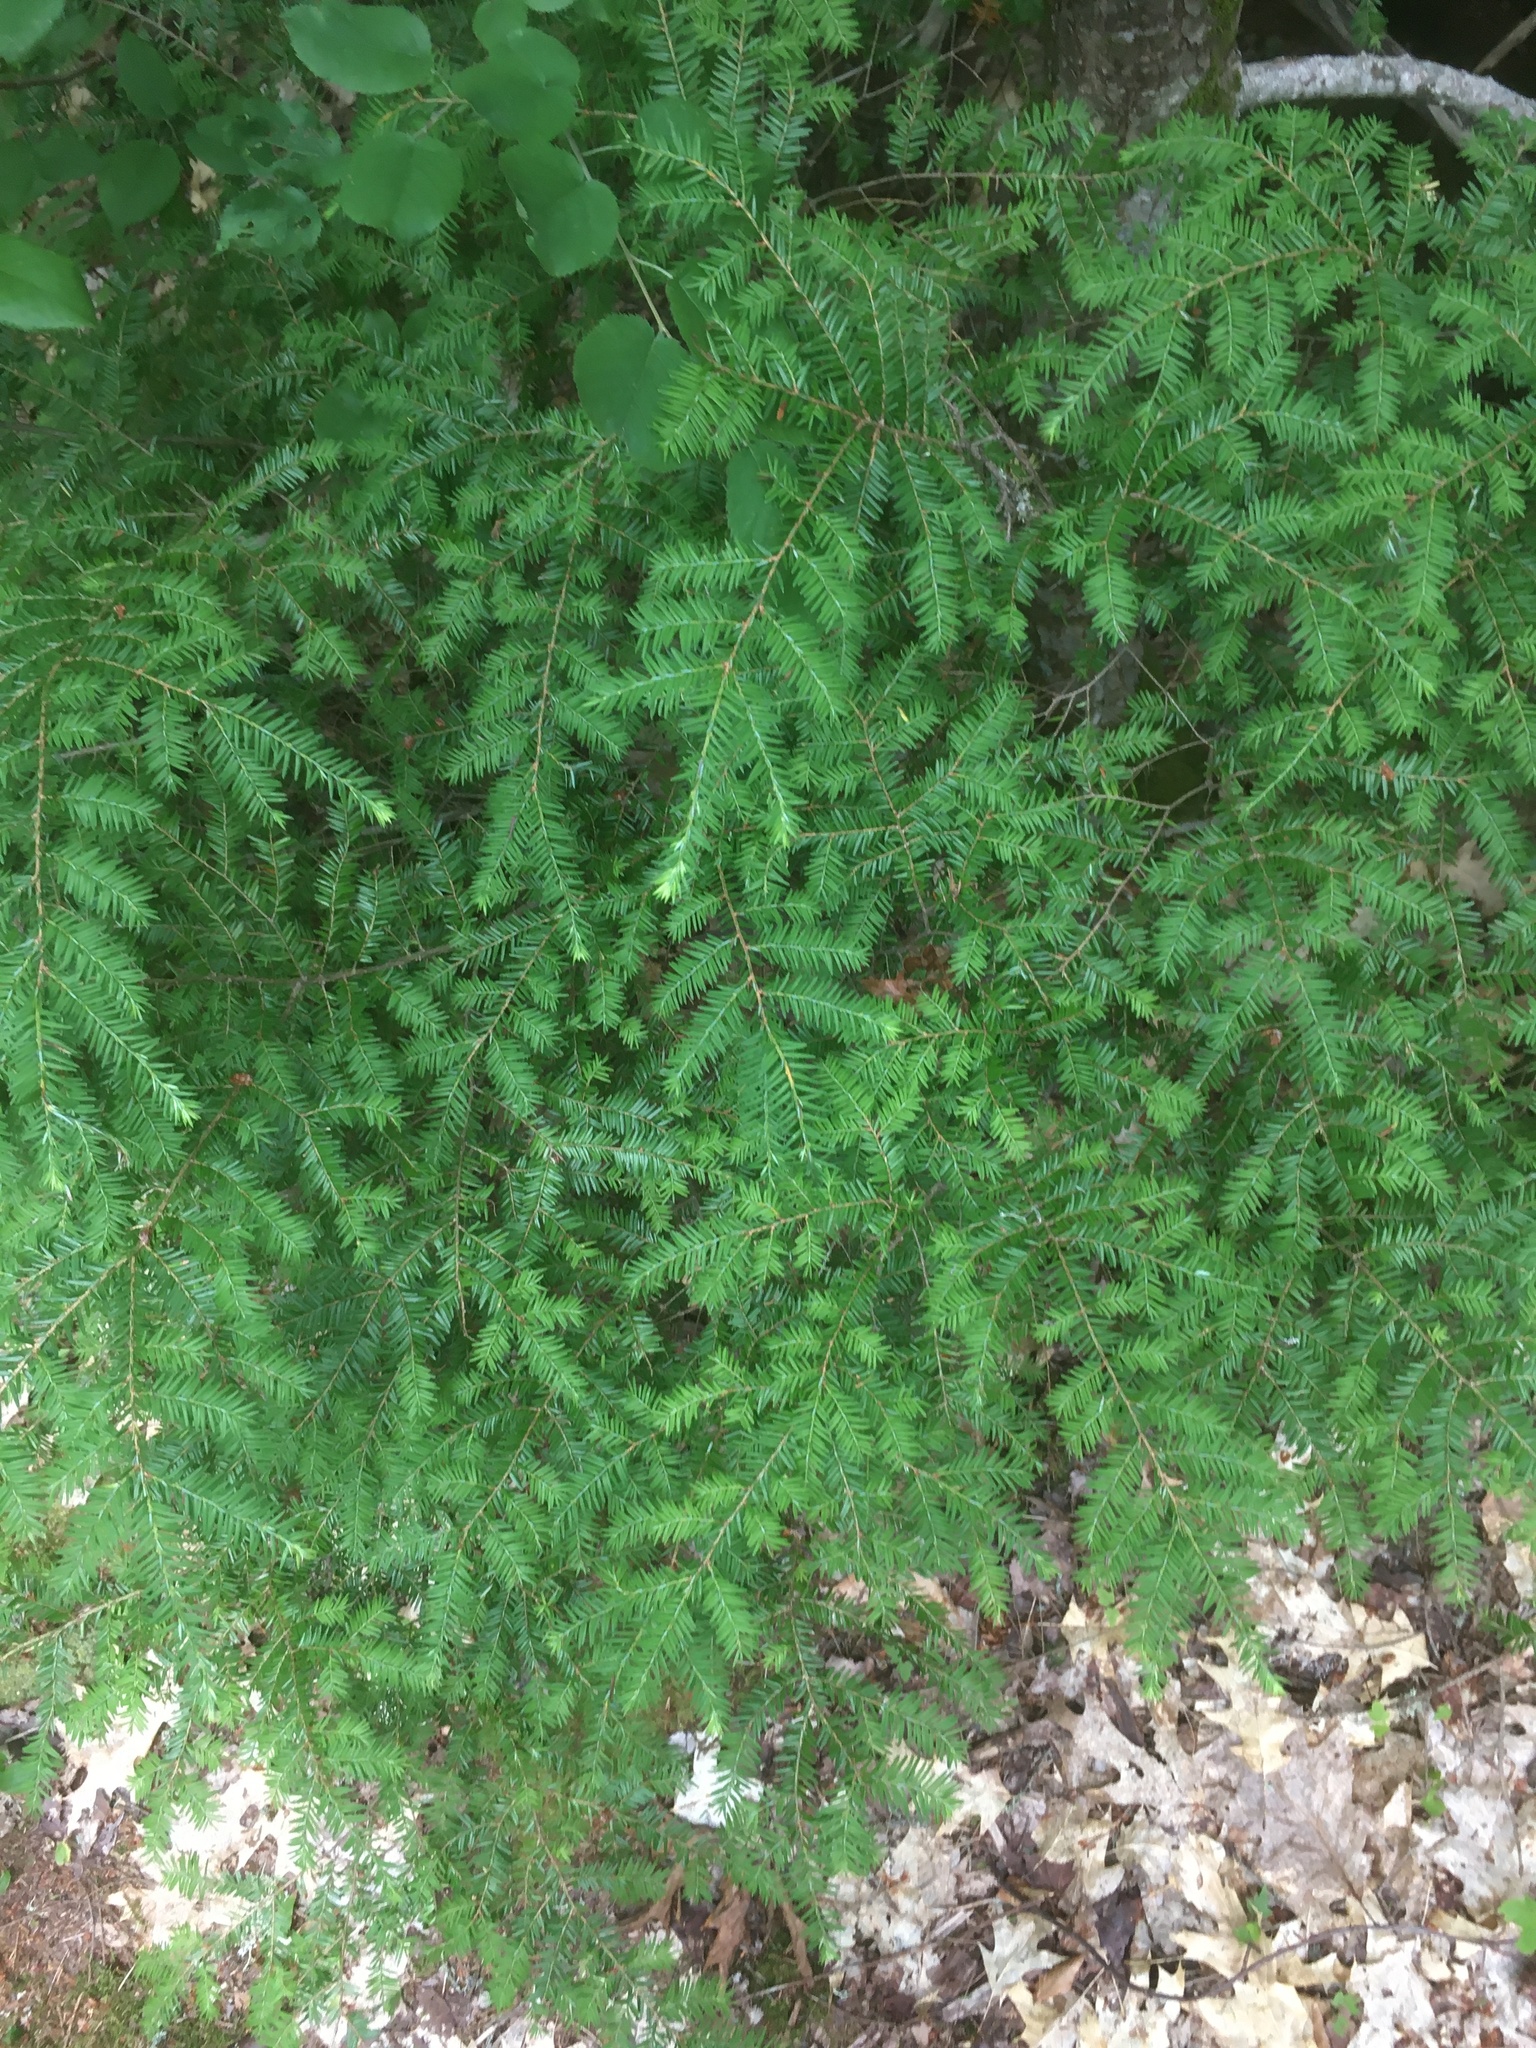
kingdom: Plantae
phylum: Tracheophyta
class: Pinopsida
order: Pinales
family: Pinaceae
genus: Tsuga
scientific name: Tsuga canadensis
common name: Eastern hemlock
